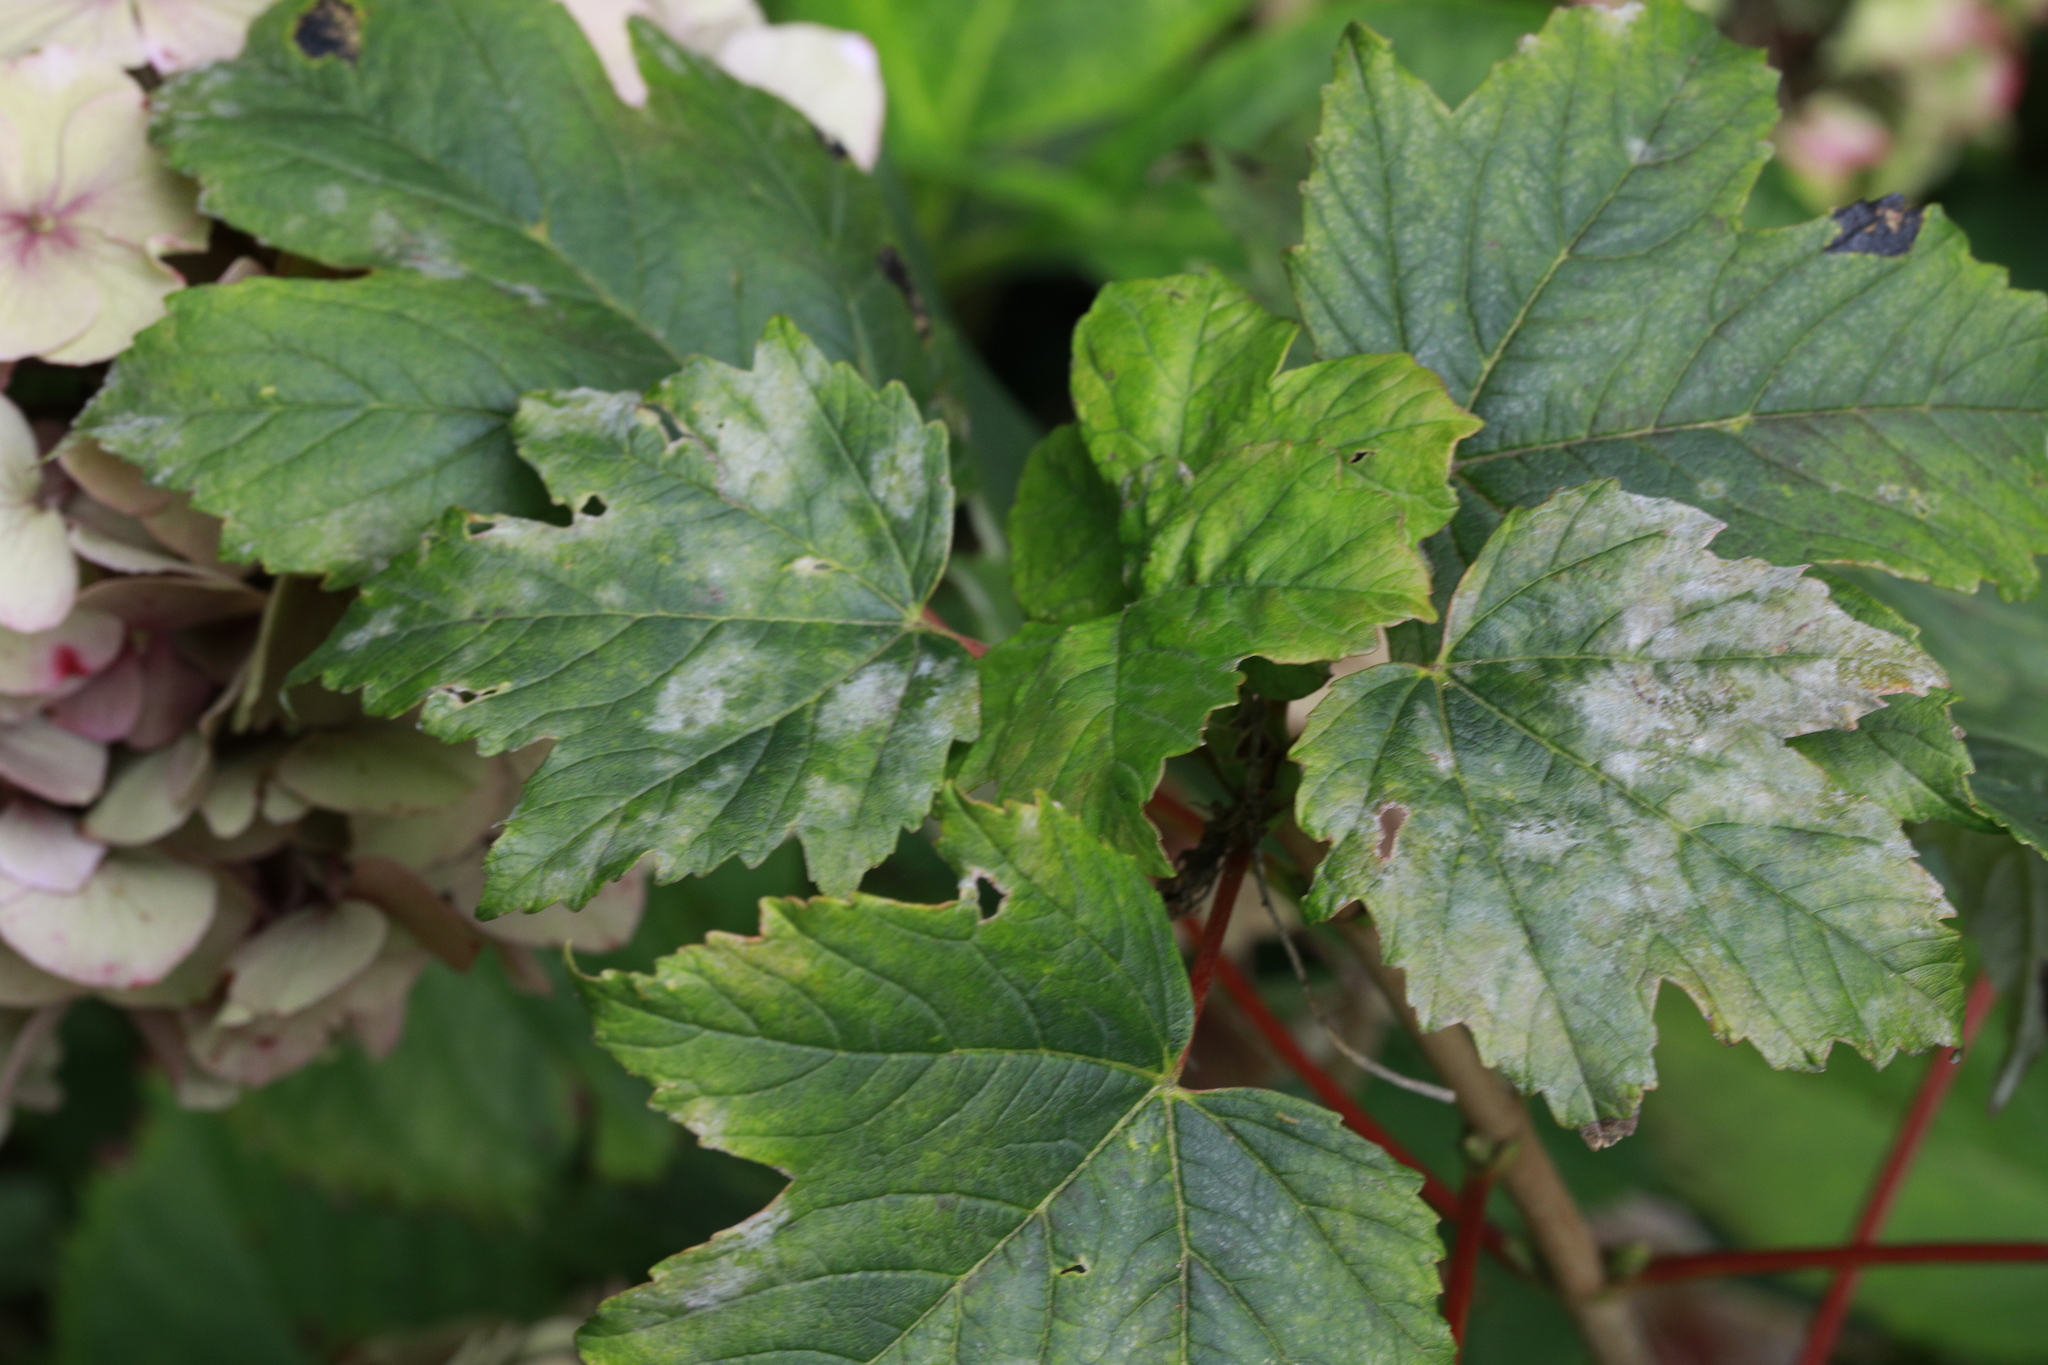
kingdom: Fungi
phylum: Ascomycota
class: Leotiomycetes
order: Helotiales
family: Erysiphaceae
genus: Sawadaea
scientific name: Sawadaea bicornis
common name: Maple mildew
